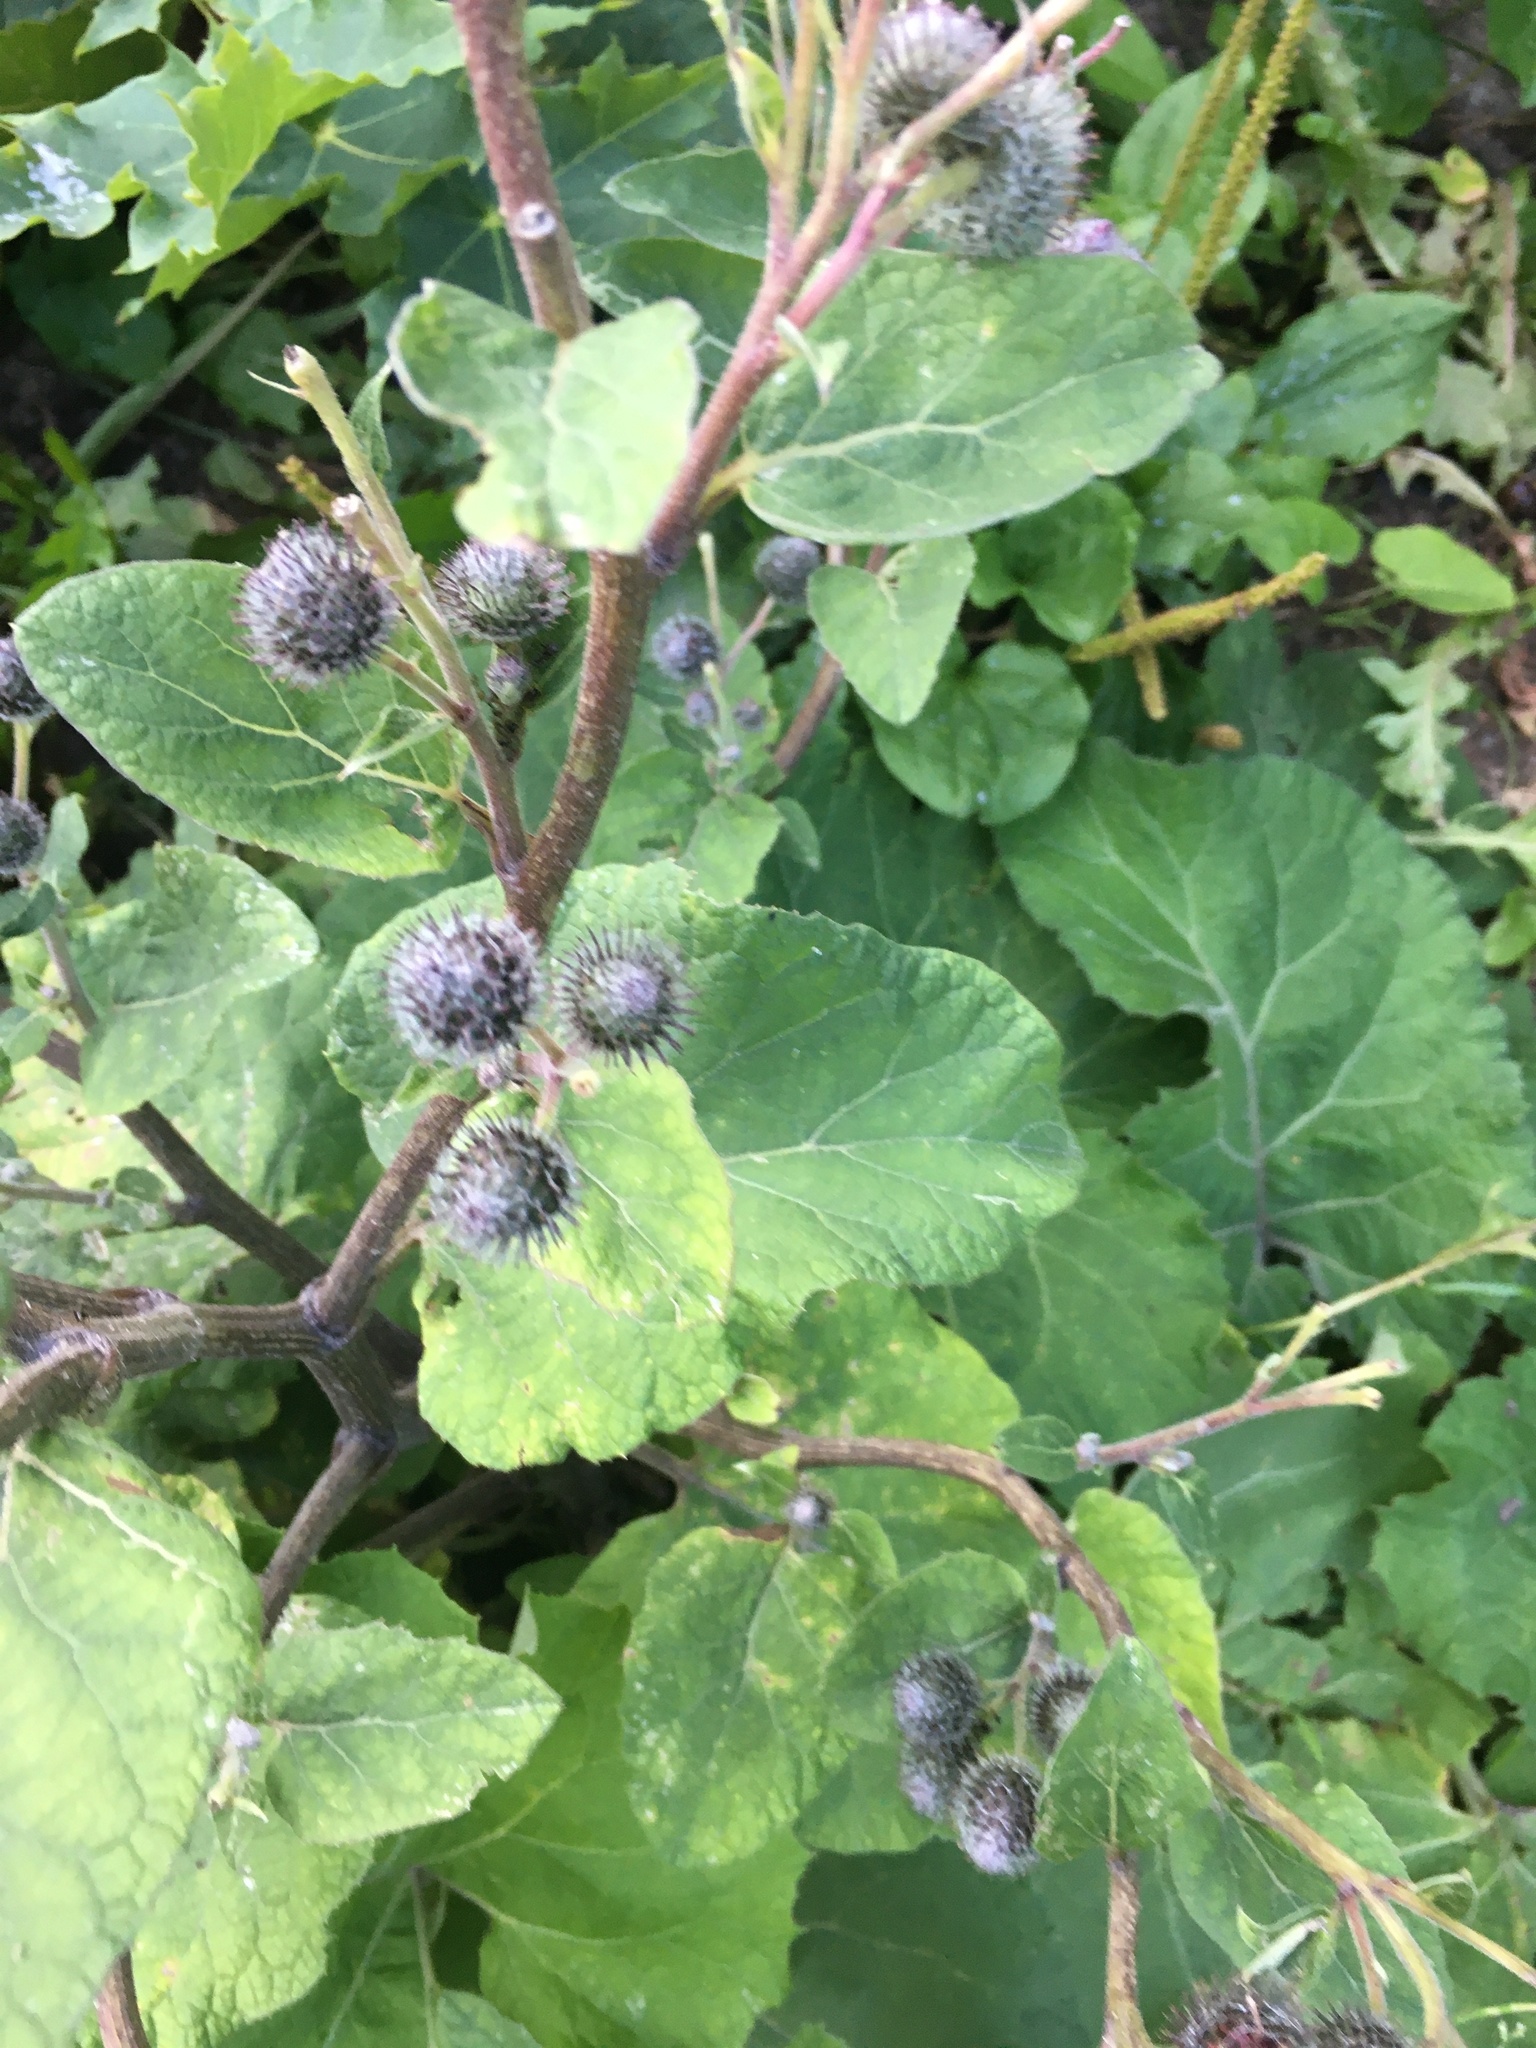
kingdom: Plantae
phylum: Tracheophyta
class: Magnoliopsida
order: Asterales
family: Asteraceae
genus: Arctium
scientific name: Arctium tomentosum
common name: Woolly burdock
